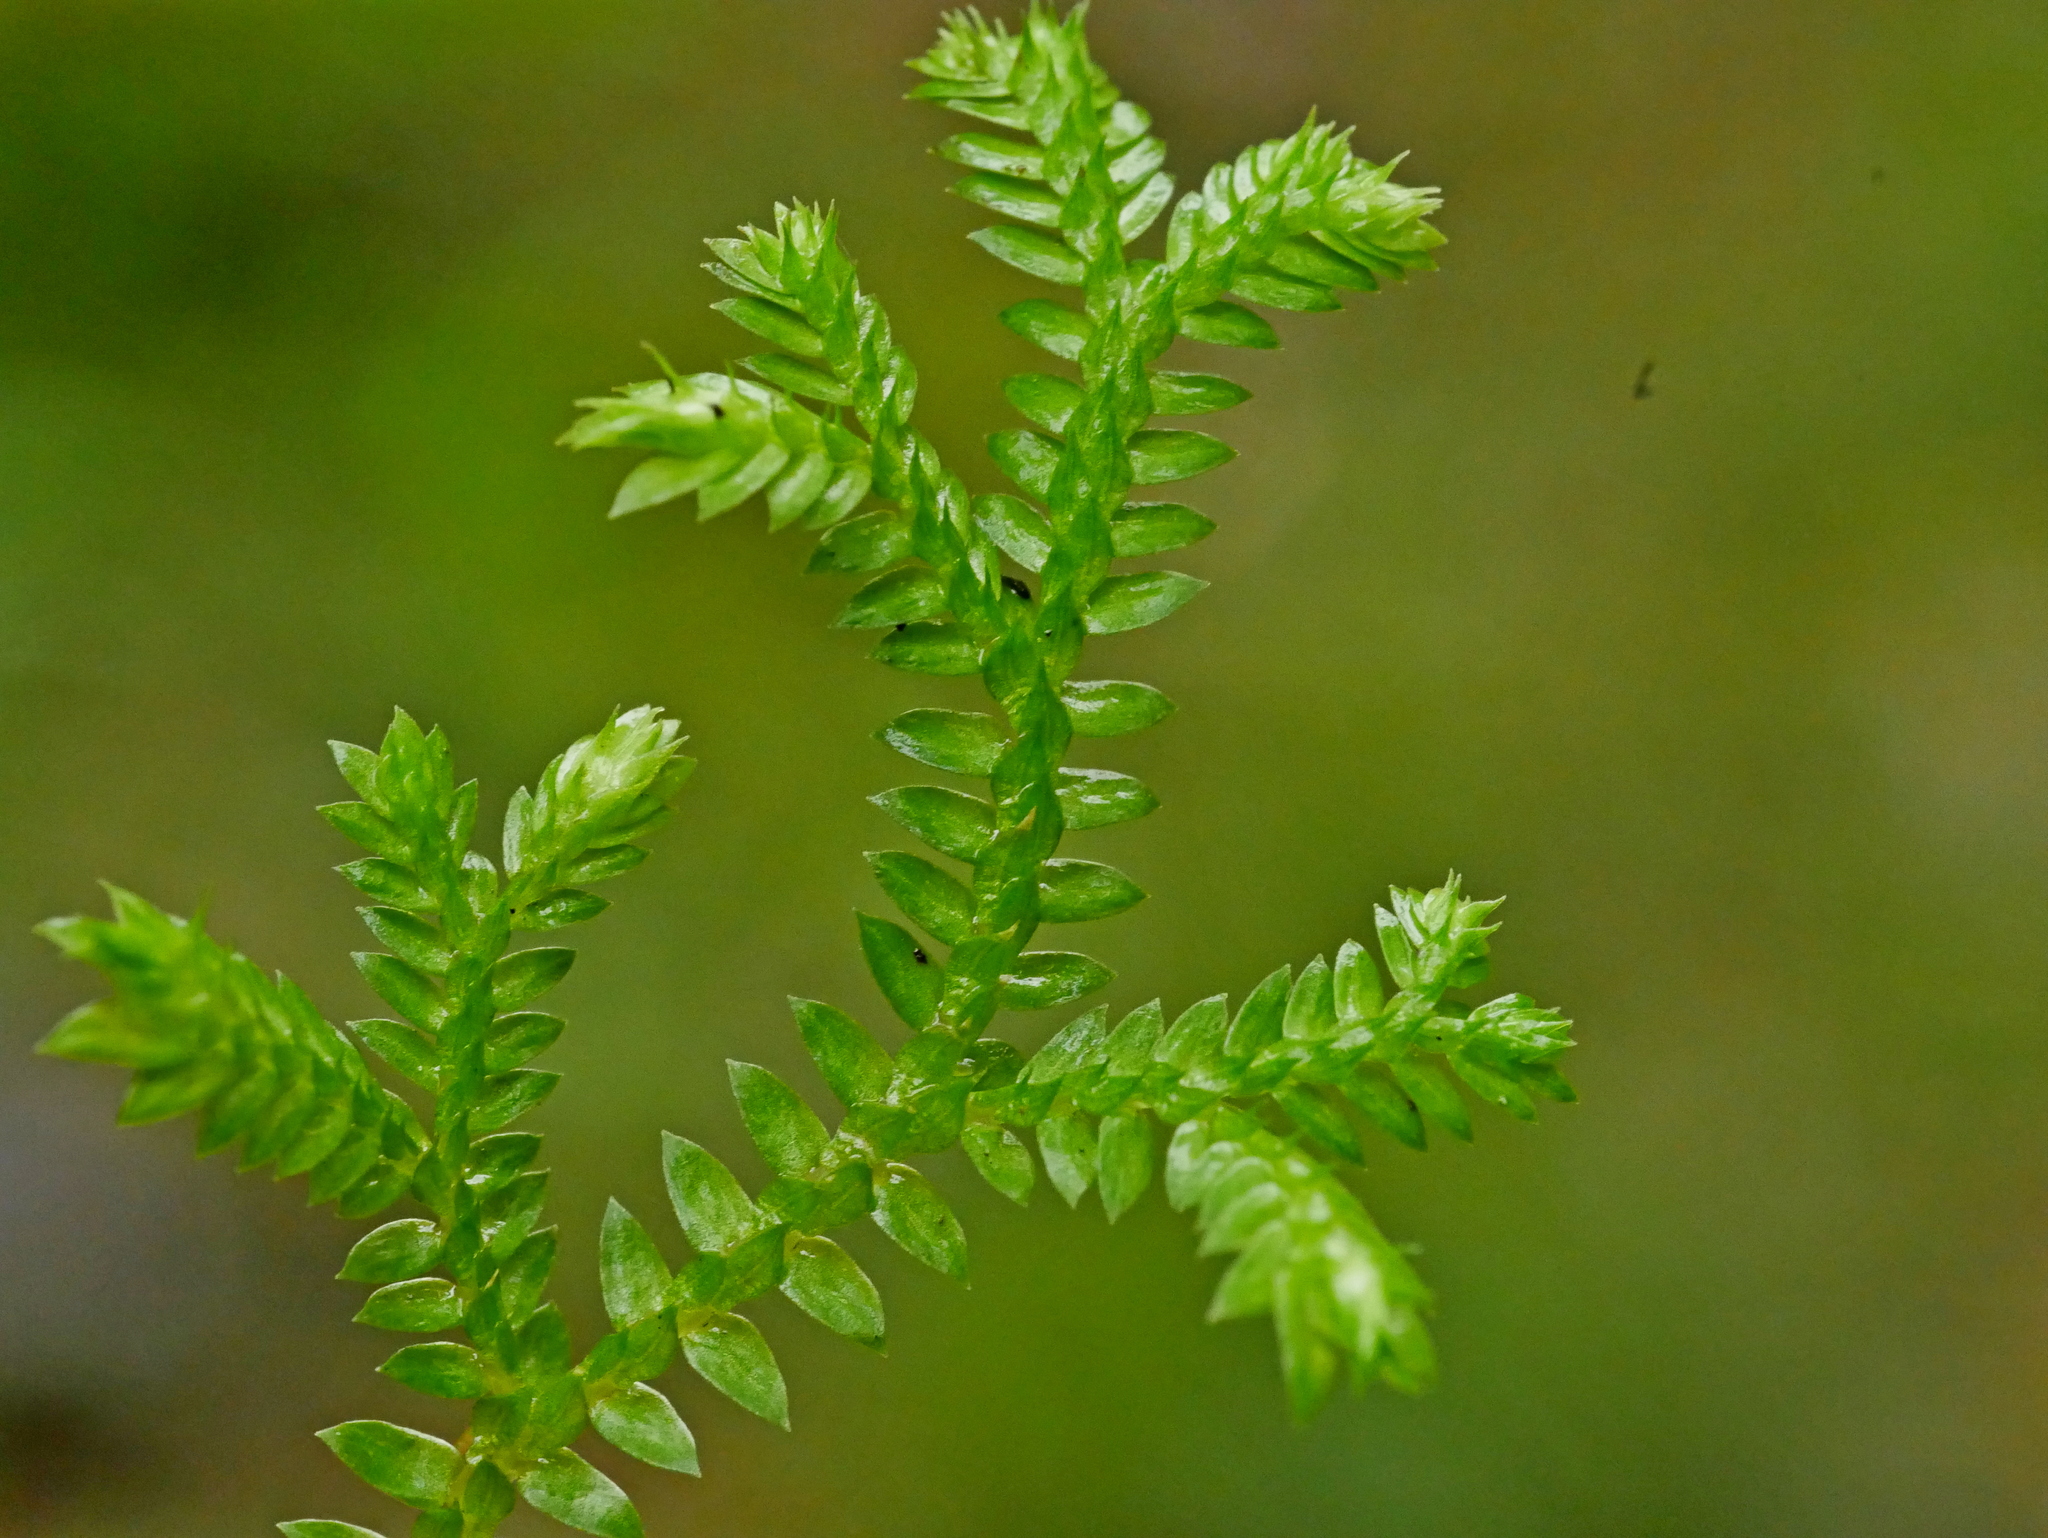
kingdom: Plantae
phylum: Tracheophyta
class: Lycopodiopsida
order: Selaginellales
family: Selaginellaceae
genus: Selaginella
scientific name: Selaginella remotifolia
